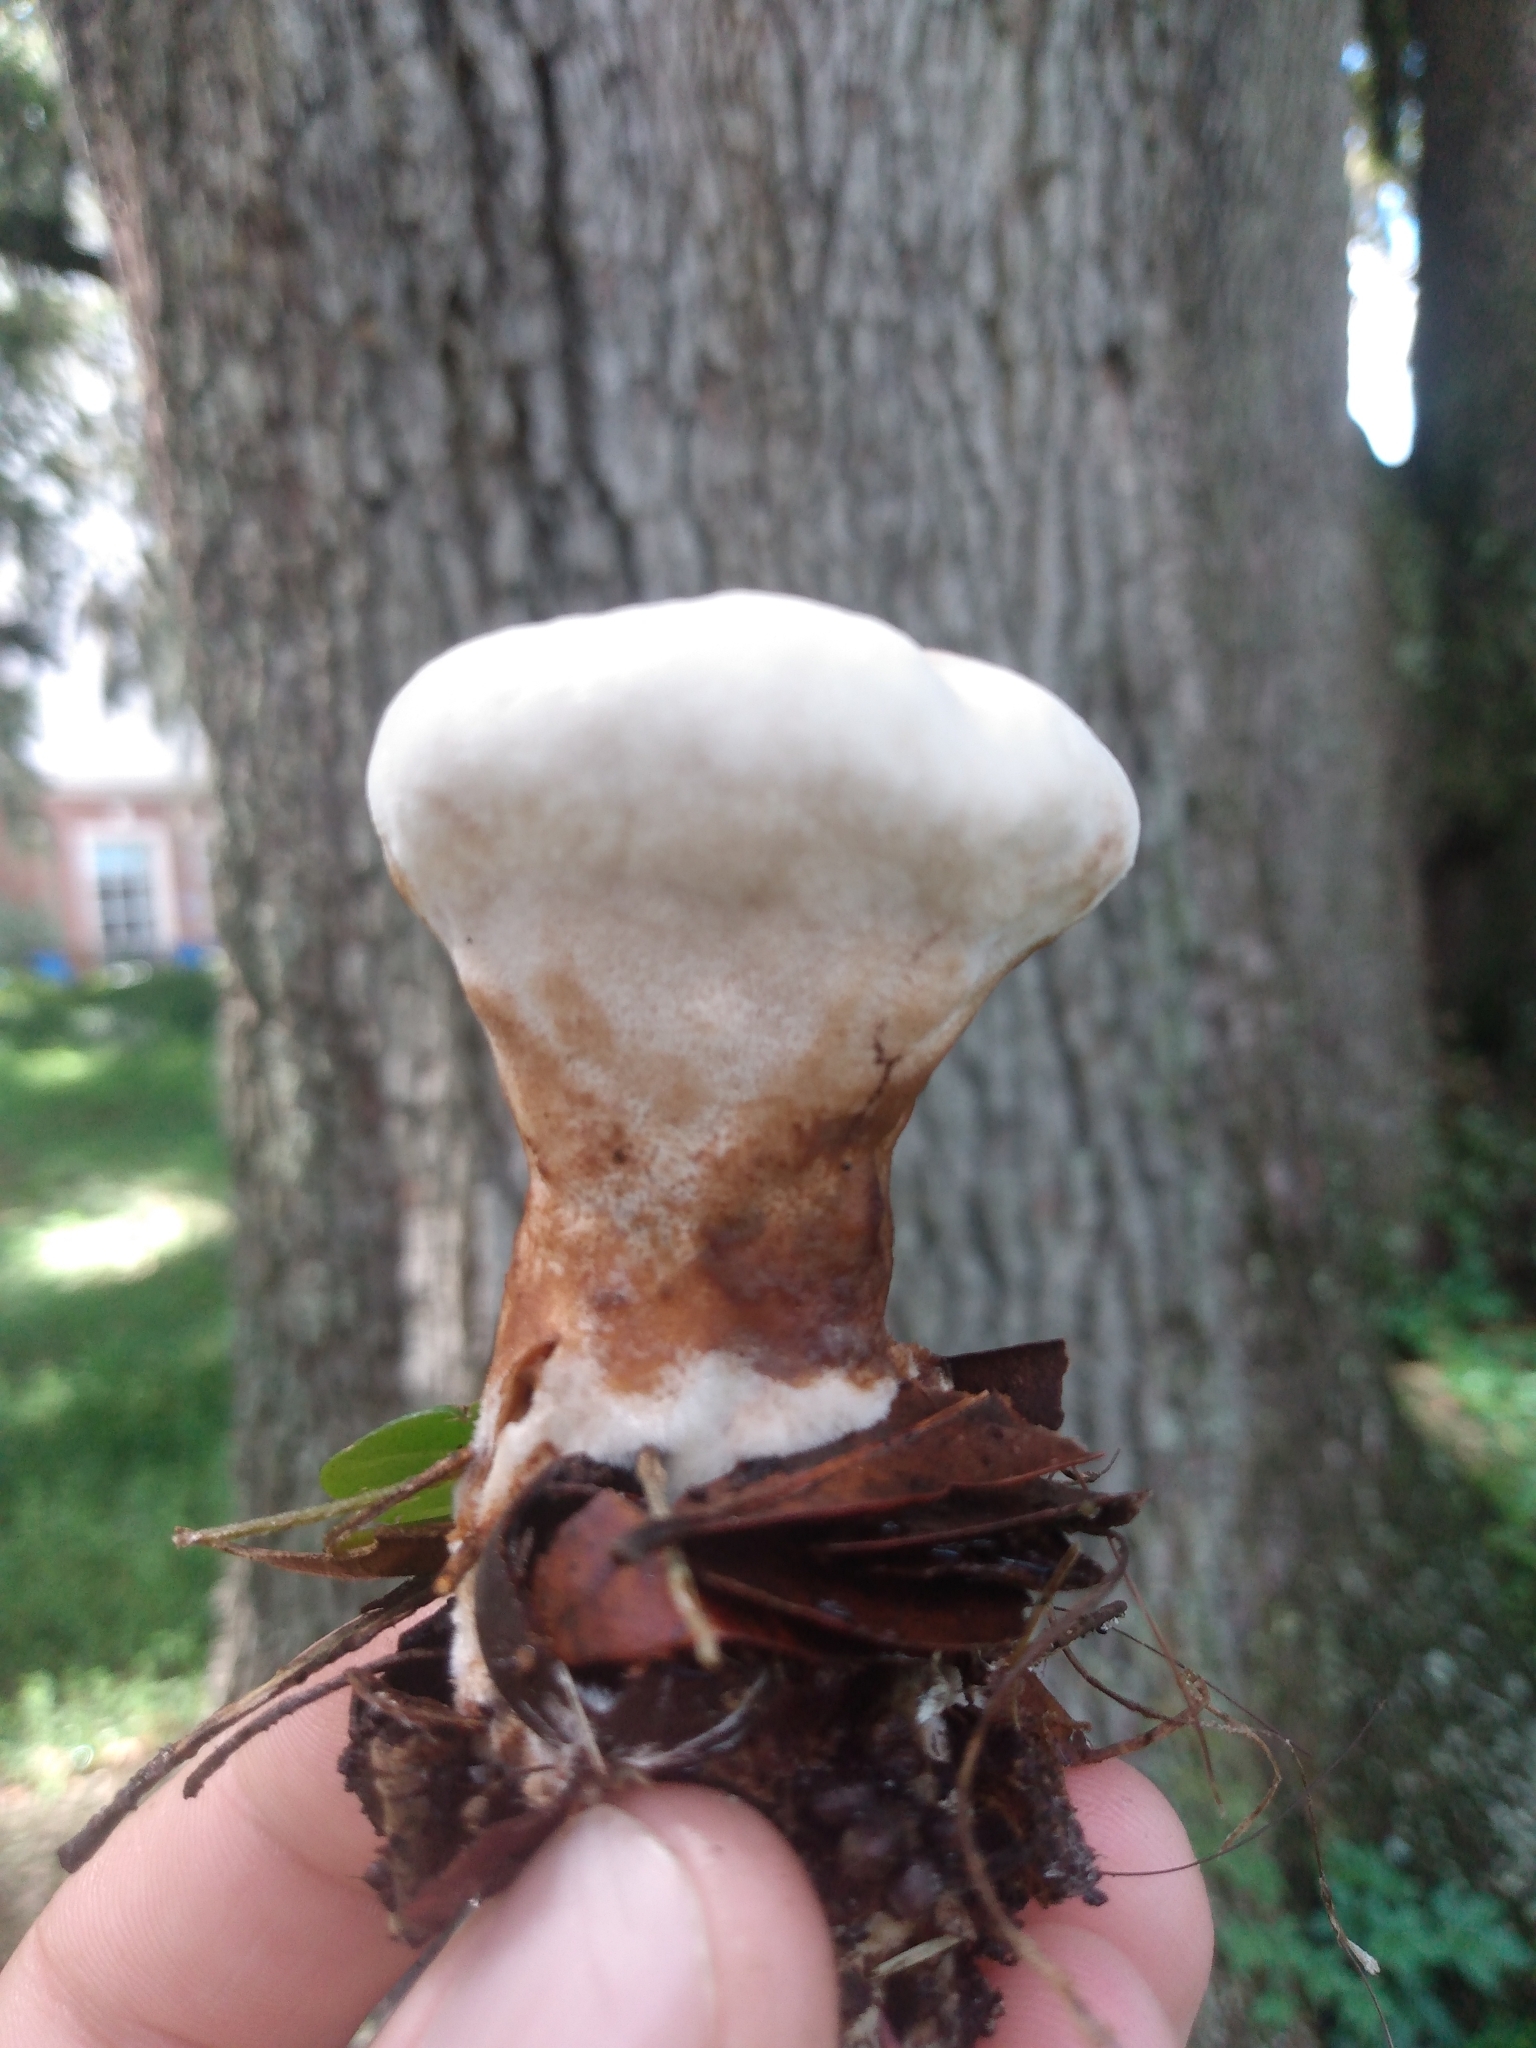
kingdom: Fungi
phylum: Basidiomycota
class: Agaricomycetes
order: Polyporales
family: Laetiporaceae
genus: Berkcurtia
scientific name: Berkcurtia persicina
